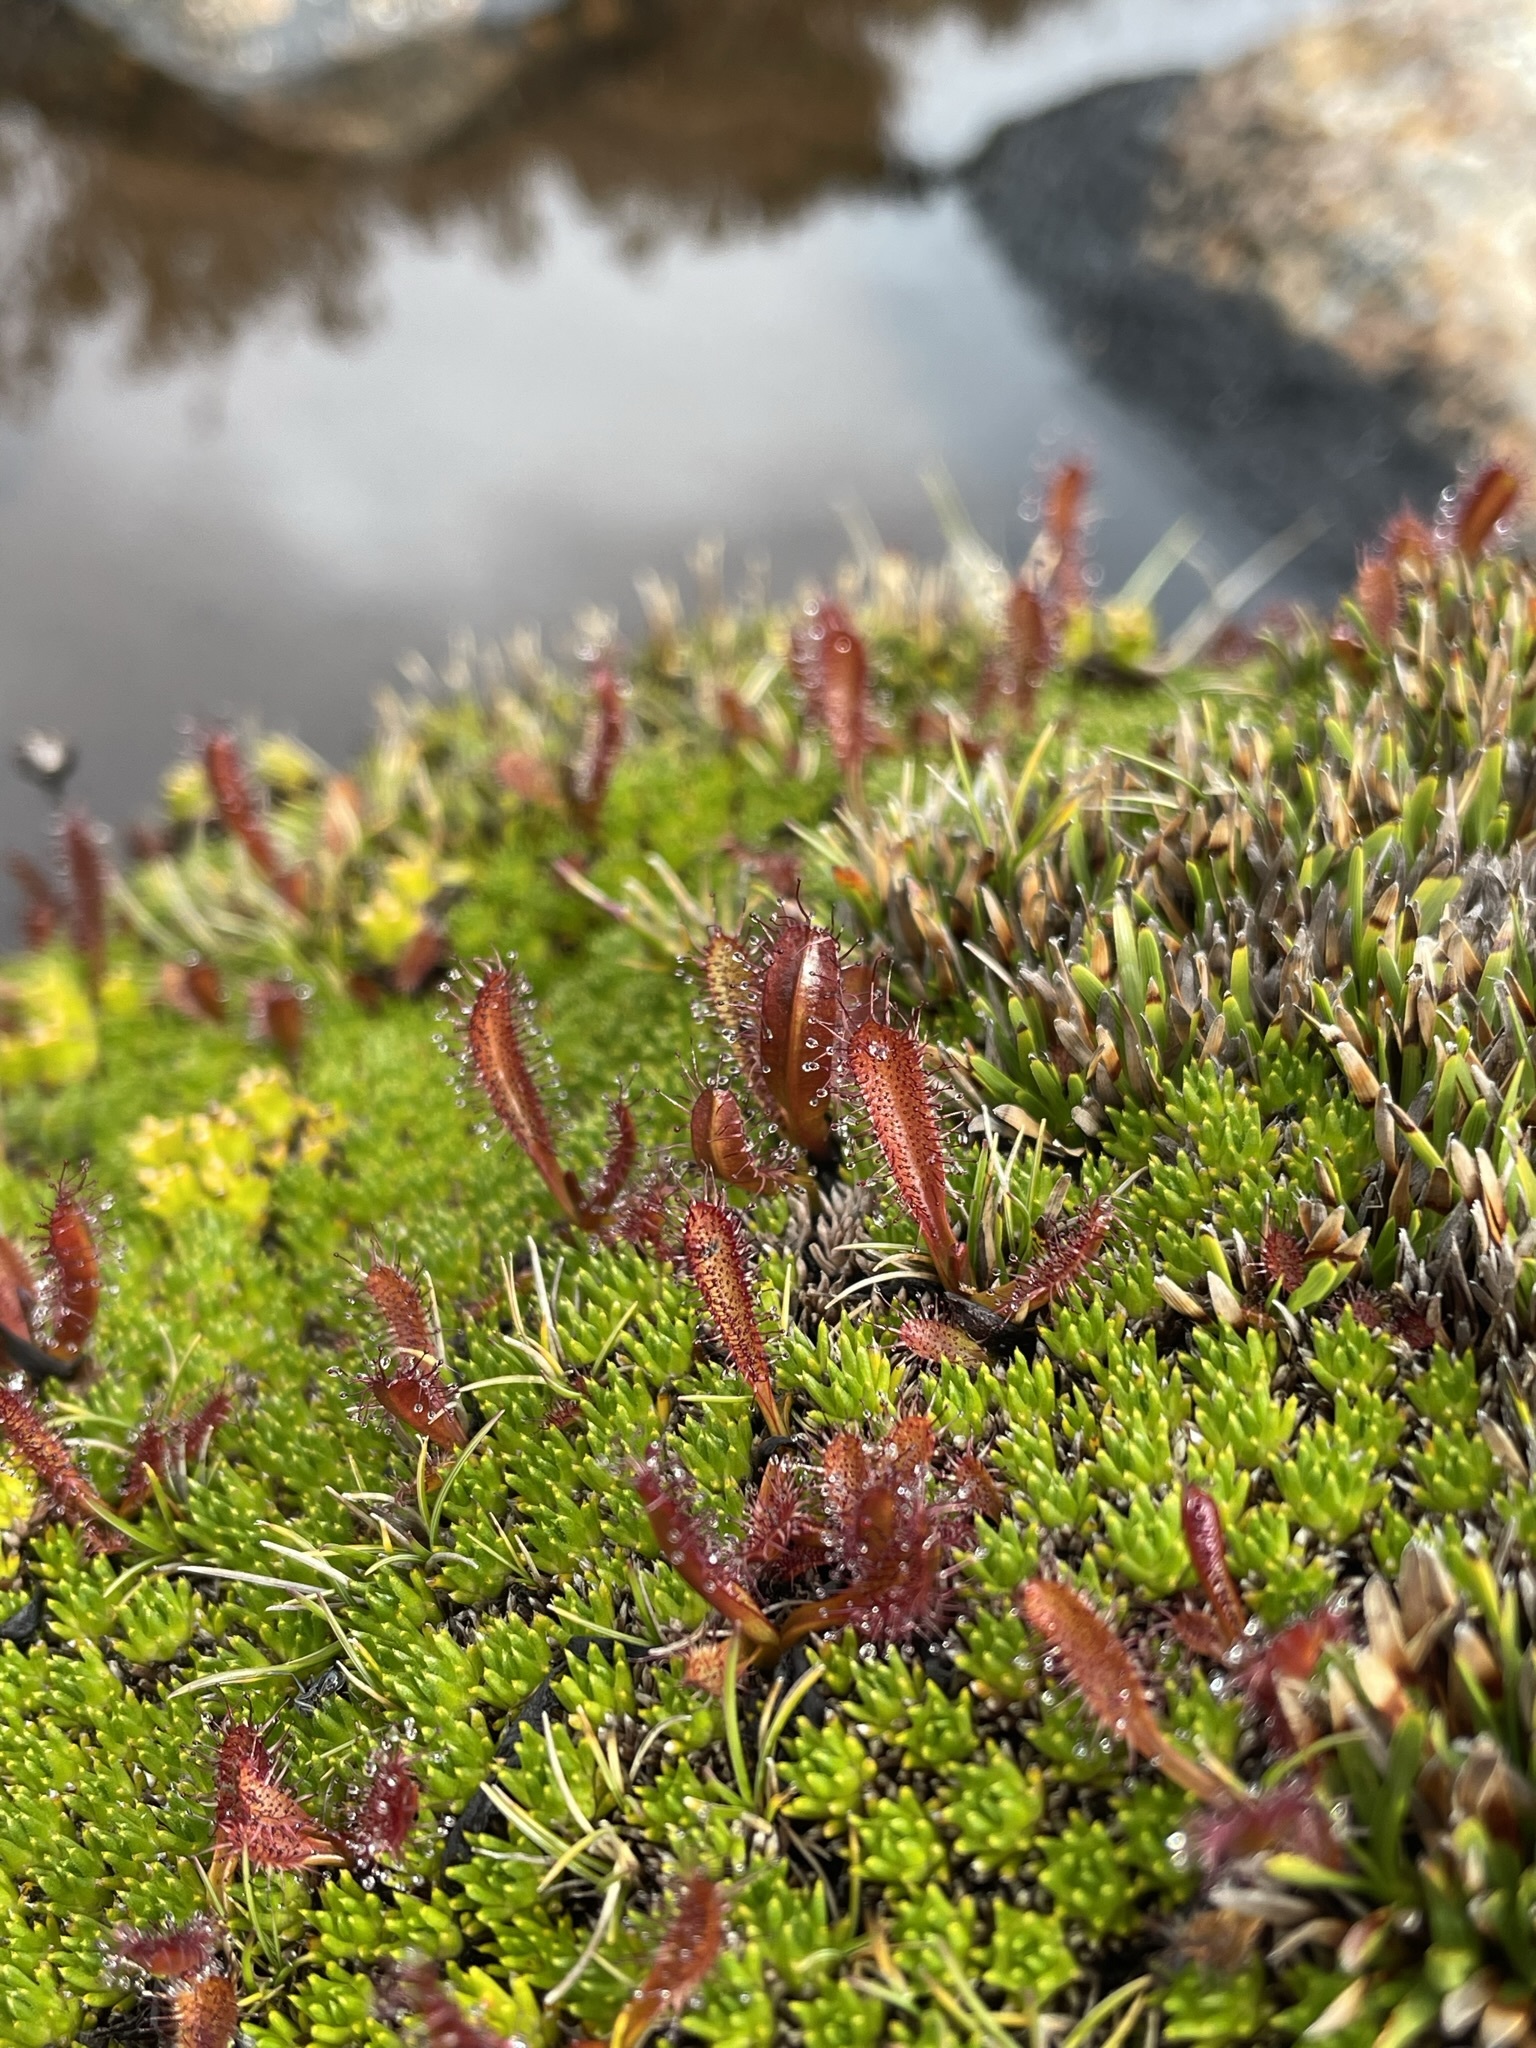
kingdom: Plantae
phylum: Tracheophyta
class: Magnoliopsida
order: Caryophyllales
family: Droseraceae
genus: Drosera
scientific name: Drosera arcturi
